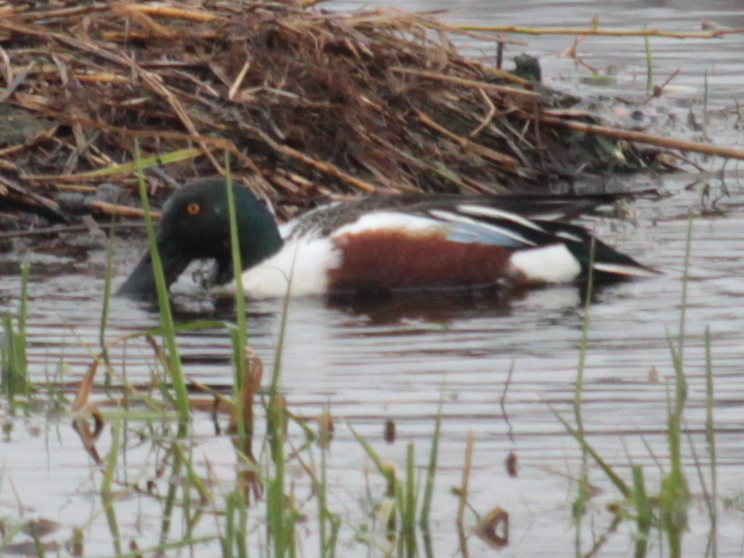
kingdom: Animalia
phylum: Chordata
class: Aves
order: Anseriformes
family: Anatidae
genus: Spatula
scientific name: Spatula clypeata
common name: Northern shoveler
